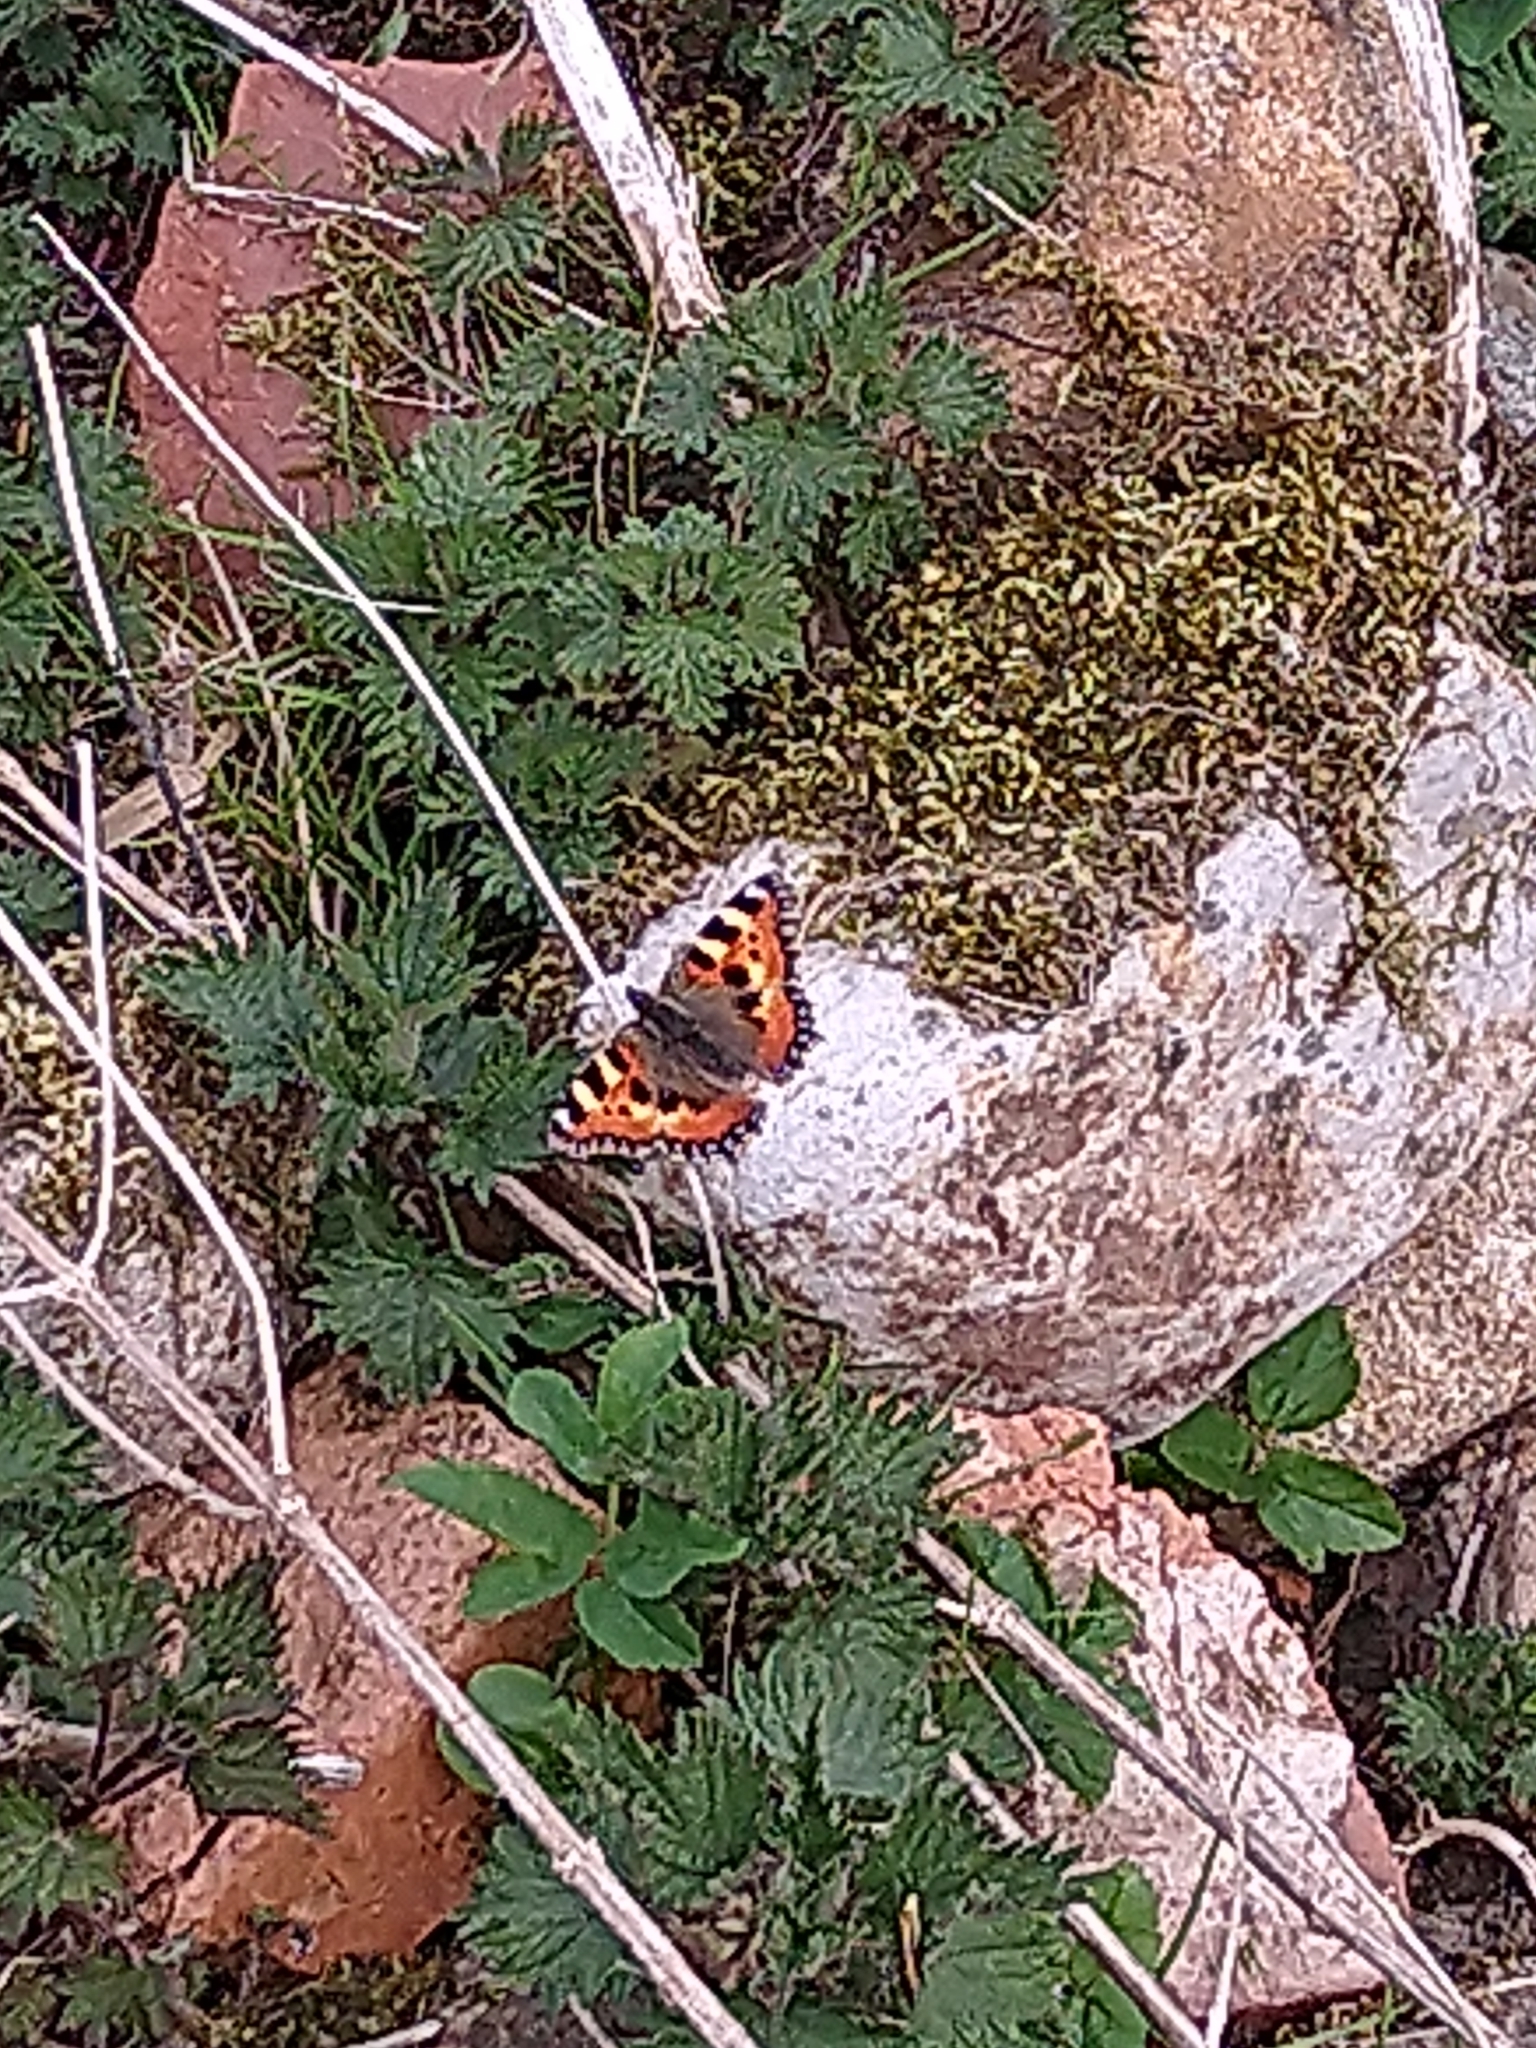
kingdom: Animalia
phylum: Arthropoda
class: Insecta
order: Lepidoptera
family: Nymphalidae
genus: Aglais
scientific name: Aglais urticae
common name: Small tortoiseshell
